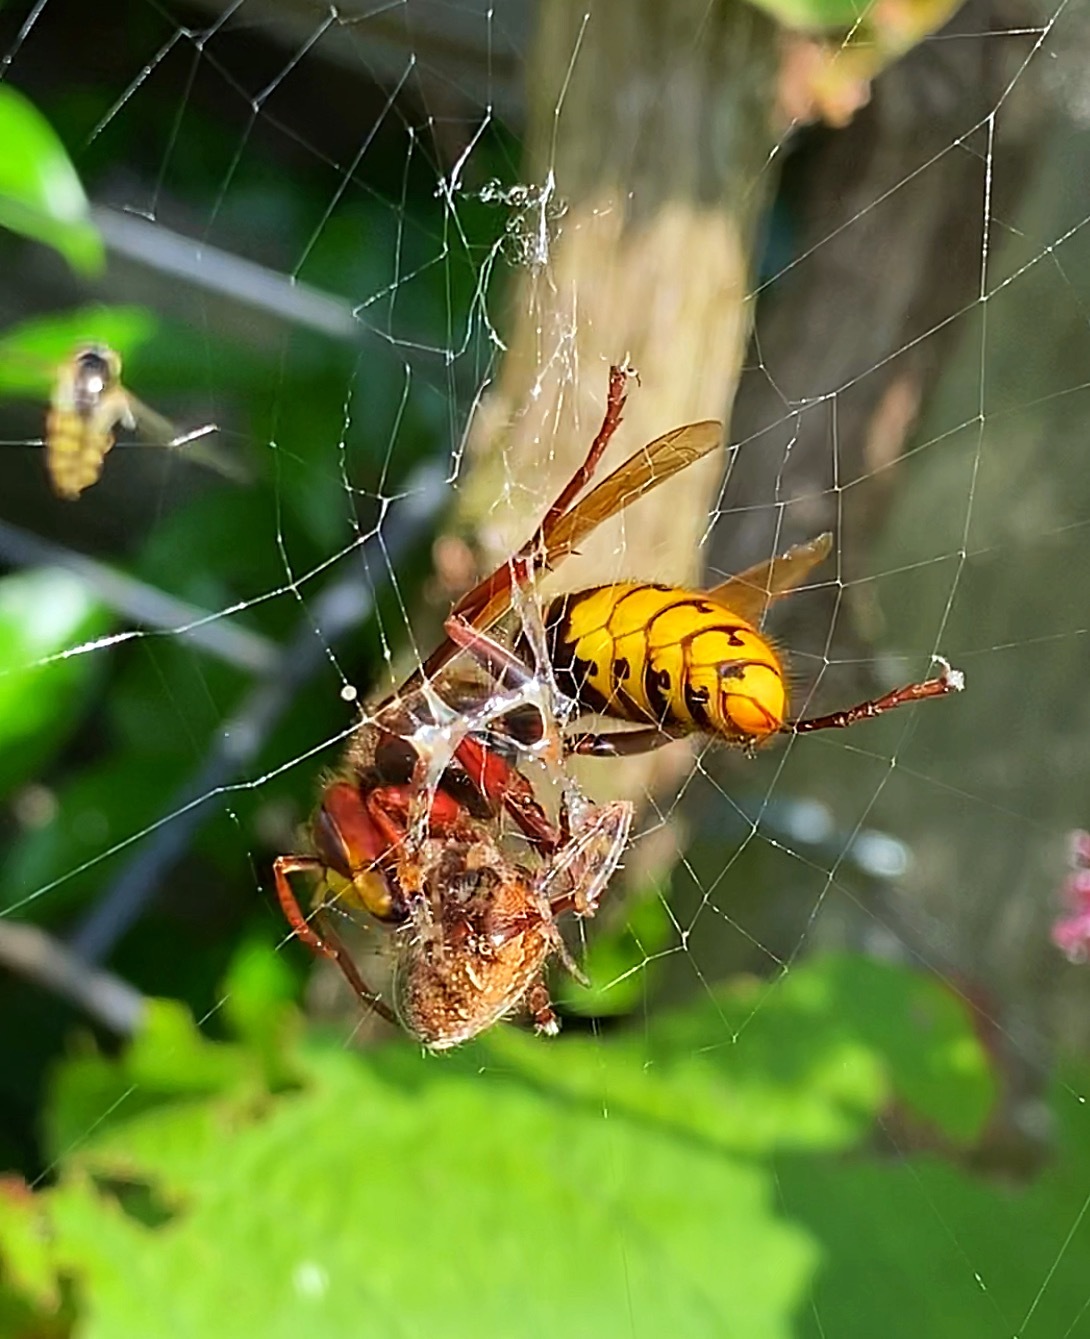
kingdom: Animalia
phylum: Arthropoda
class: Insecta
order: Hymenoptera
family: Vespidae
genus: Vespa
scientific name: Vespa crabro
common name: Hornet
